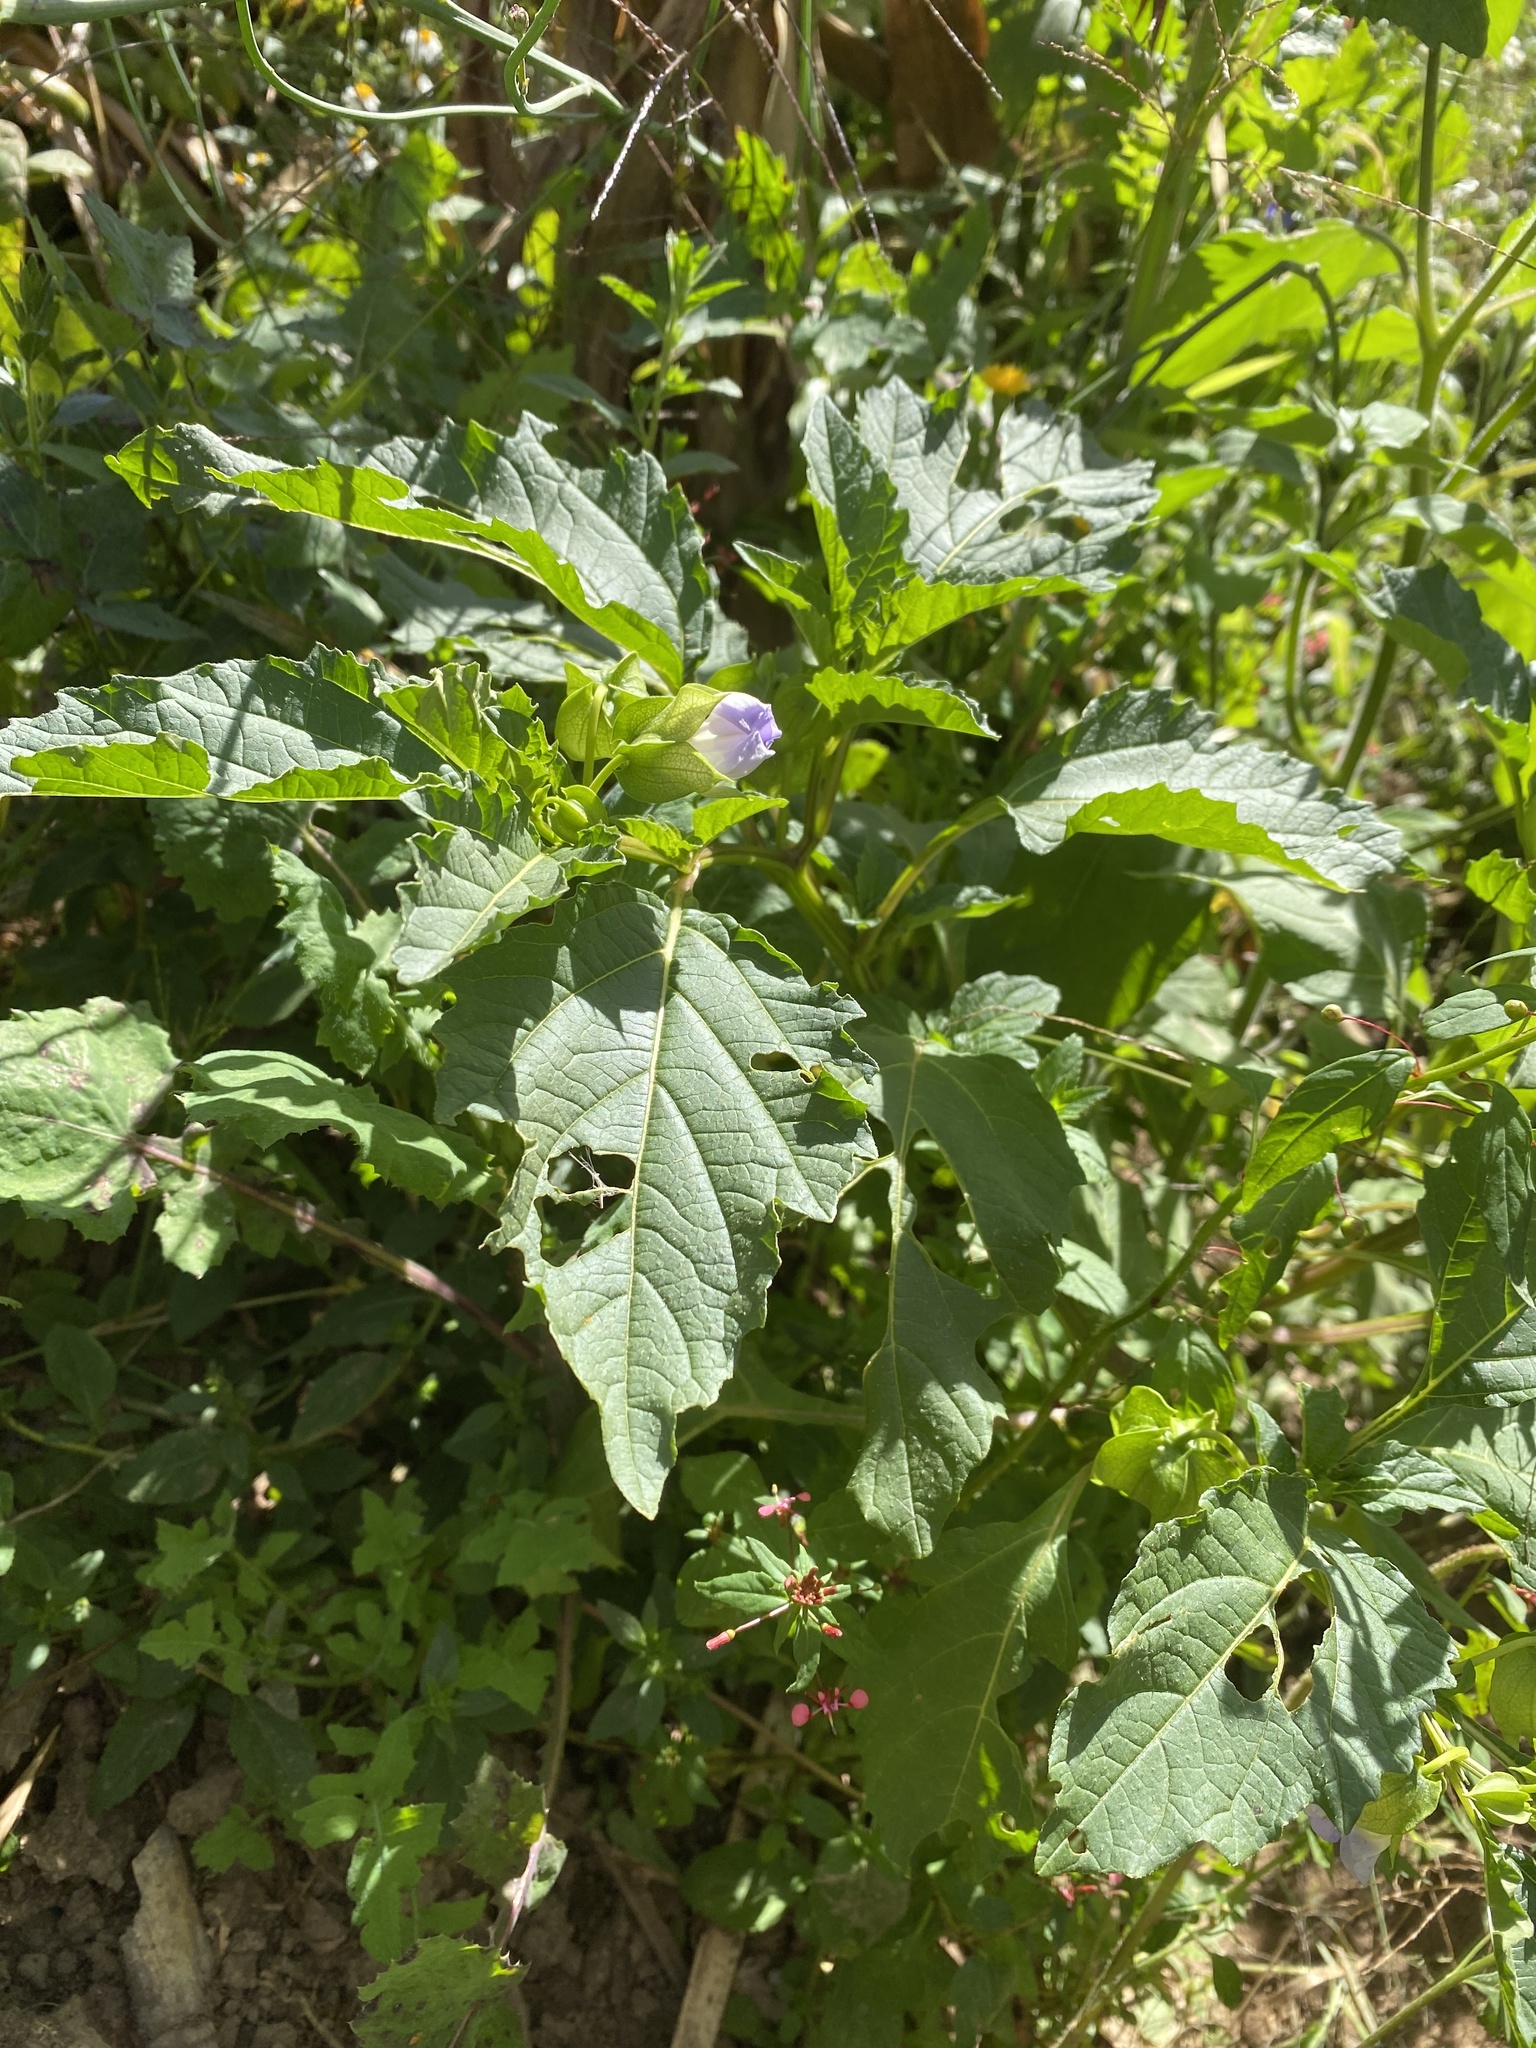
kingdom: Plantae
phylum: Tracheophyta
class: Magnoliopsida
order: Solanales
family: Solanaceae
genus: Nicandra
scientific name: Nicandra physalodes
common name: Apple-of-peru
